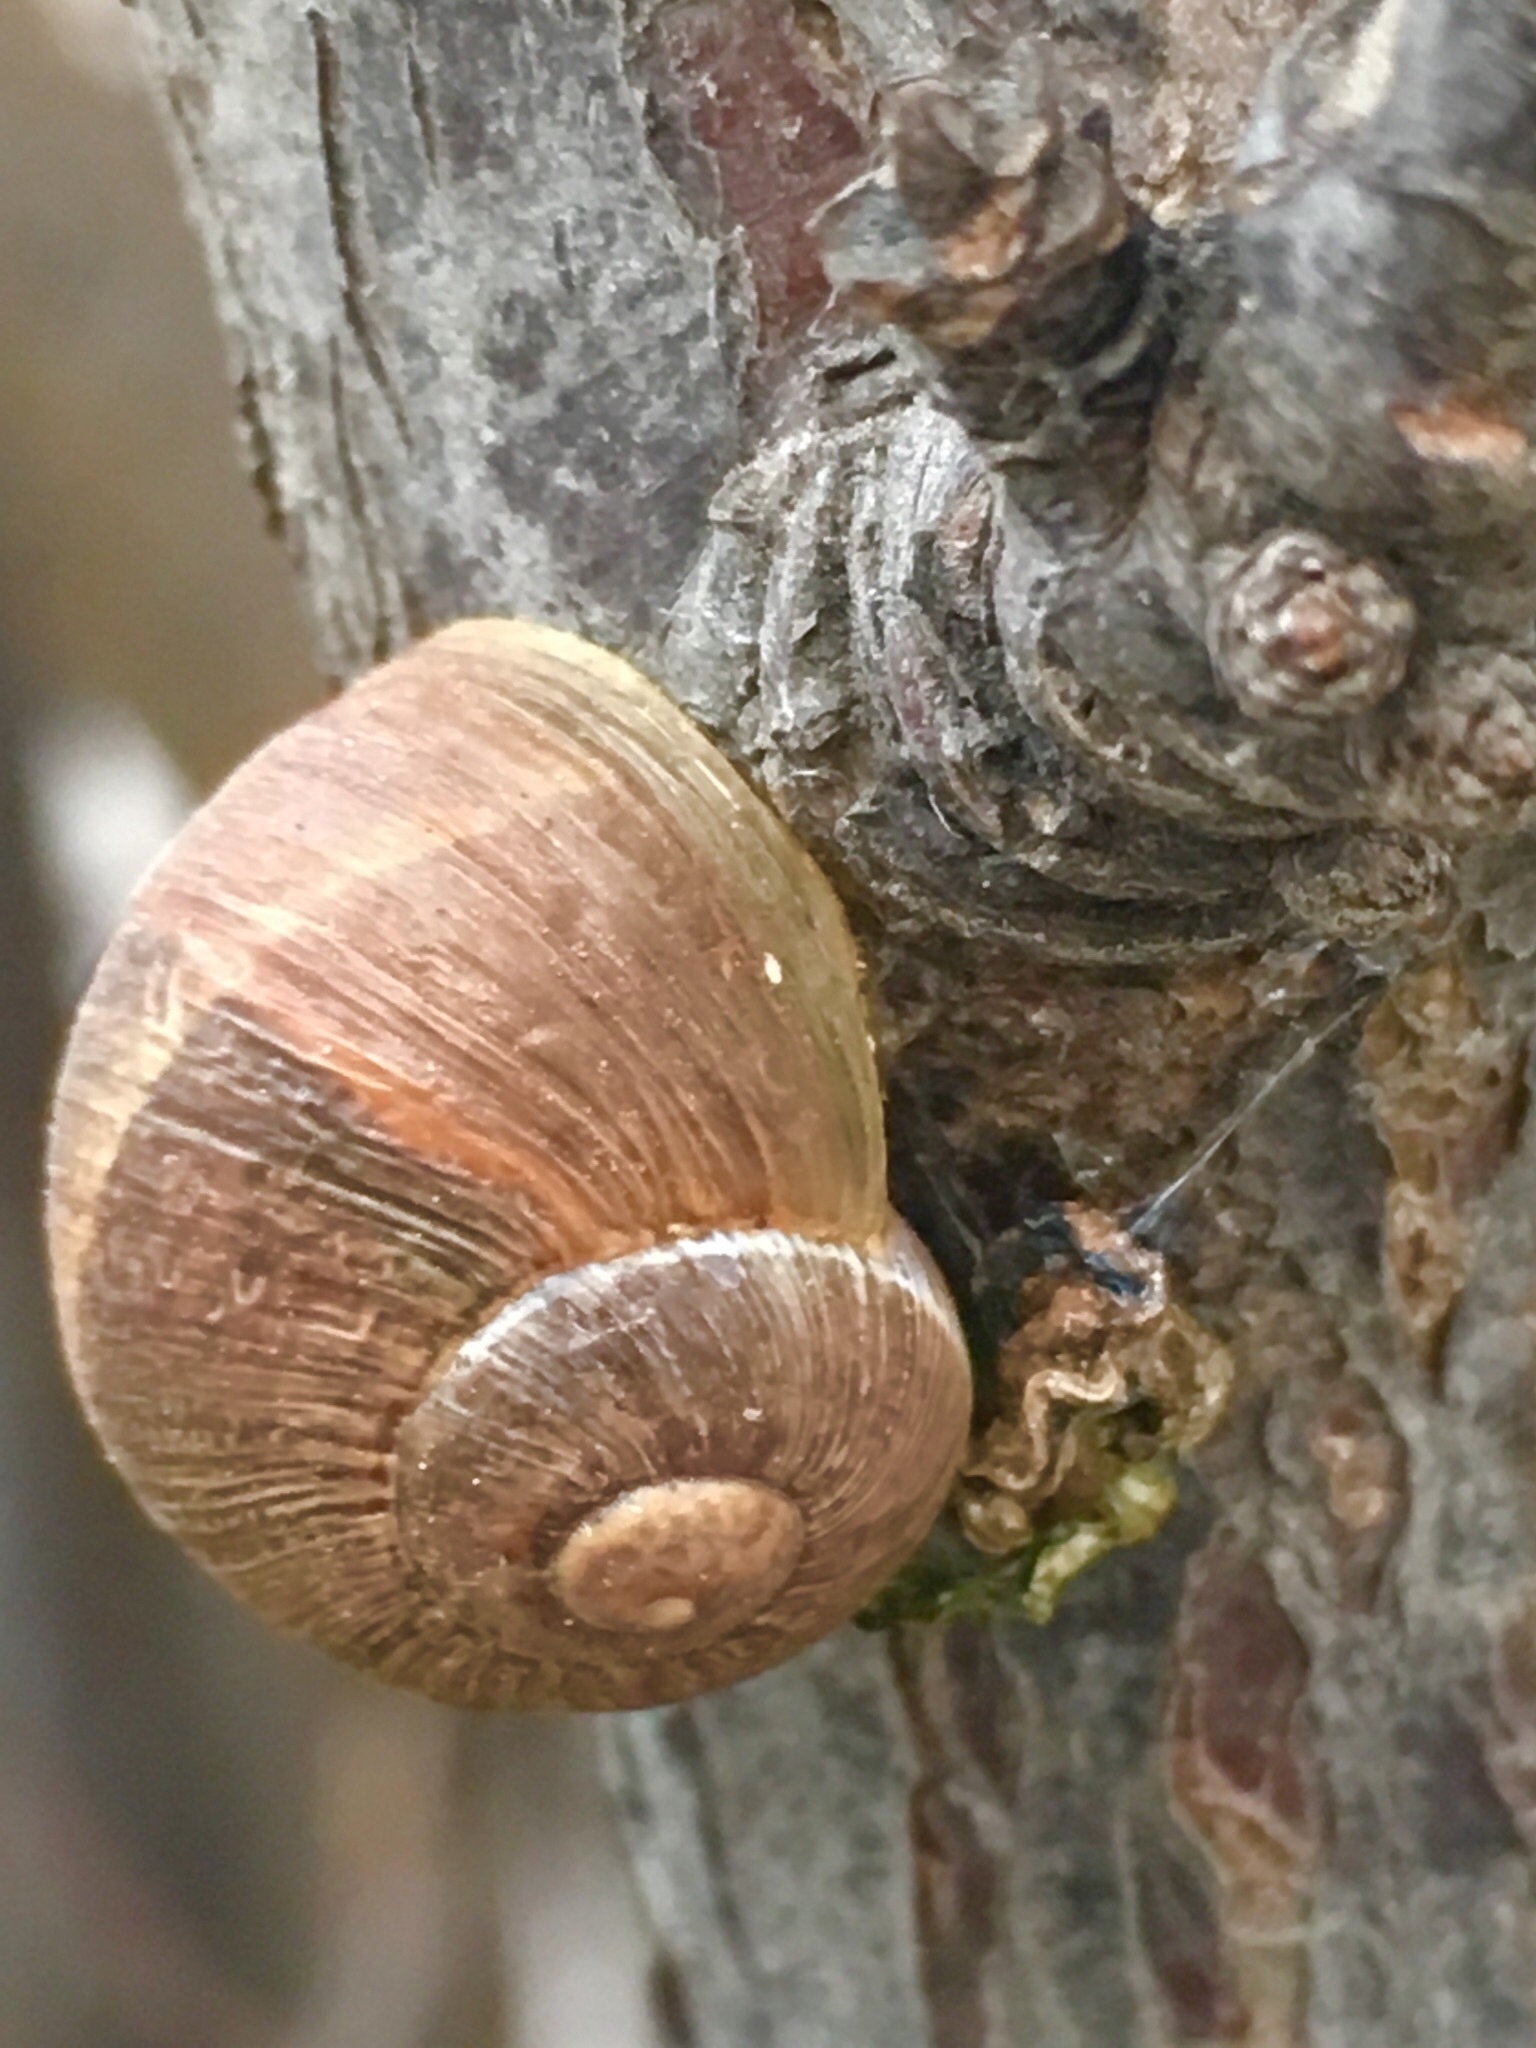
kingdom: Animalia
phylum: Mollusca
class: Gastropoda
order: Stylommatophora
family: Helicidae
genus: Cornu
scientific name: Cornu aspersum
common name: Brown garden snail
